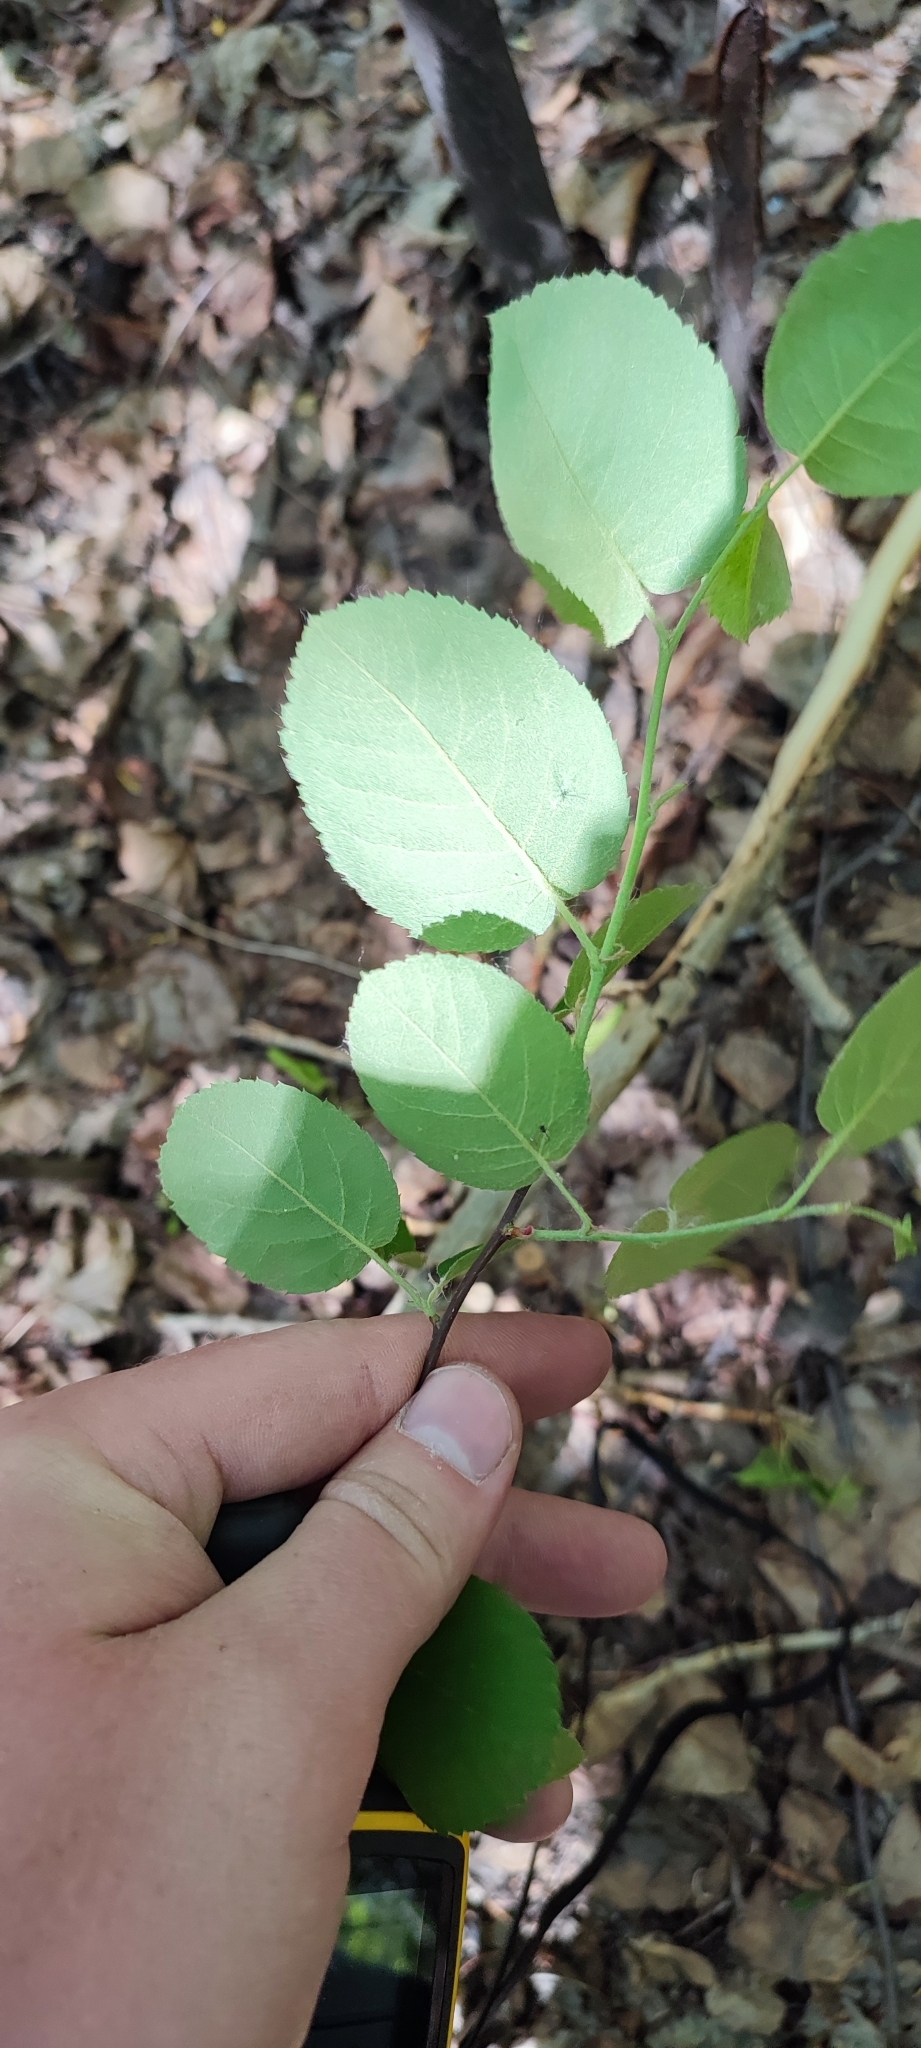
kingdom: Plantae
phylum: Tracheophyta
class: Magnoliopsida
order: Rosales
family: Rosaceae
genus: Amelanchier
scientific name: Amelanchier
